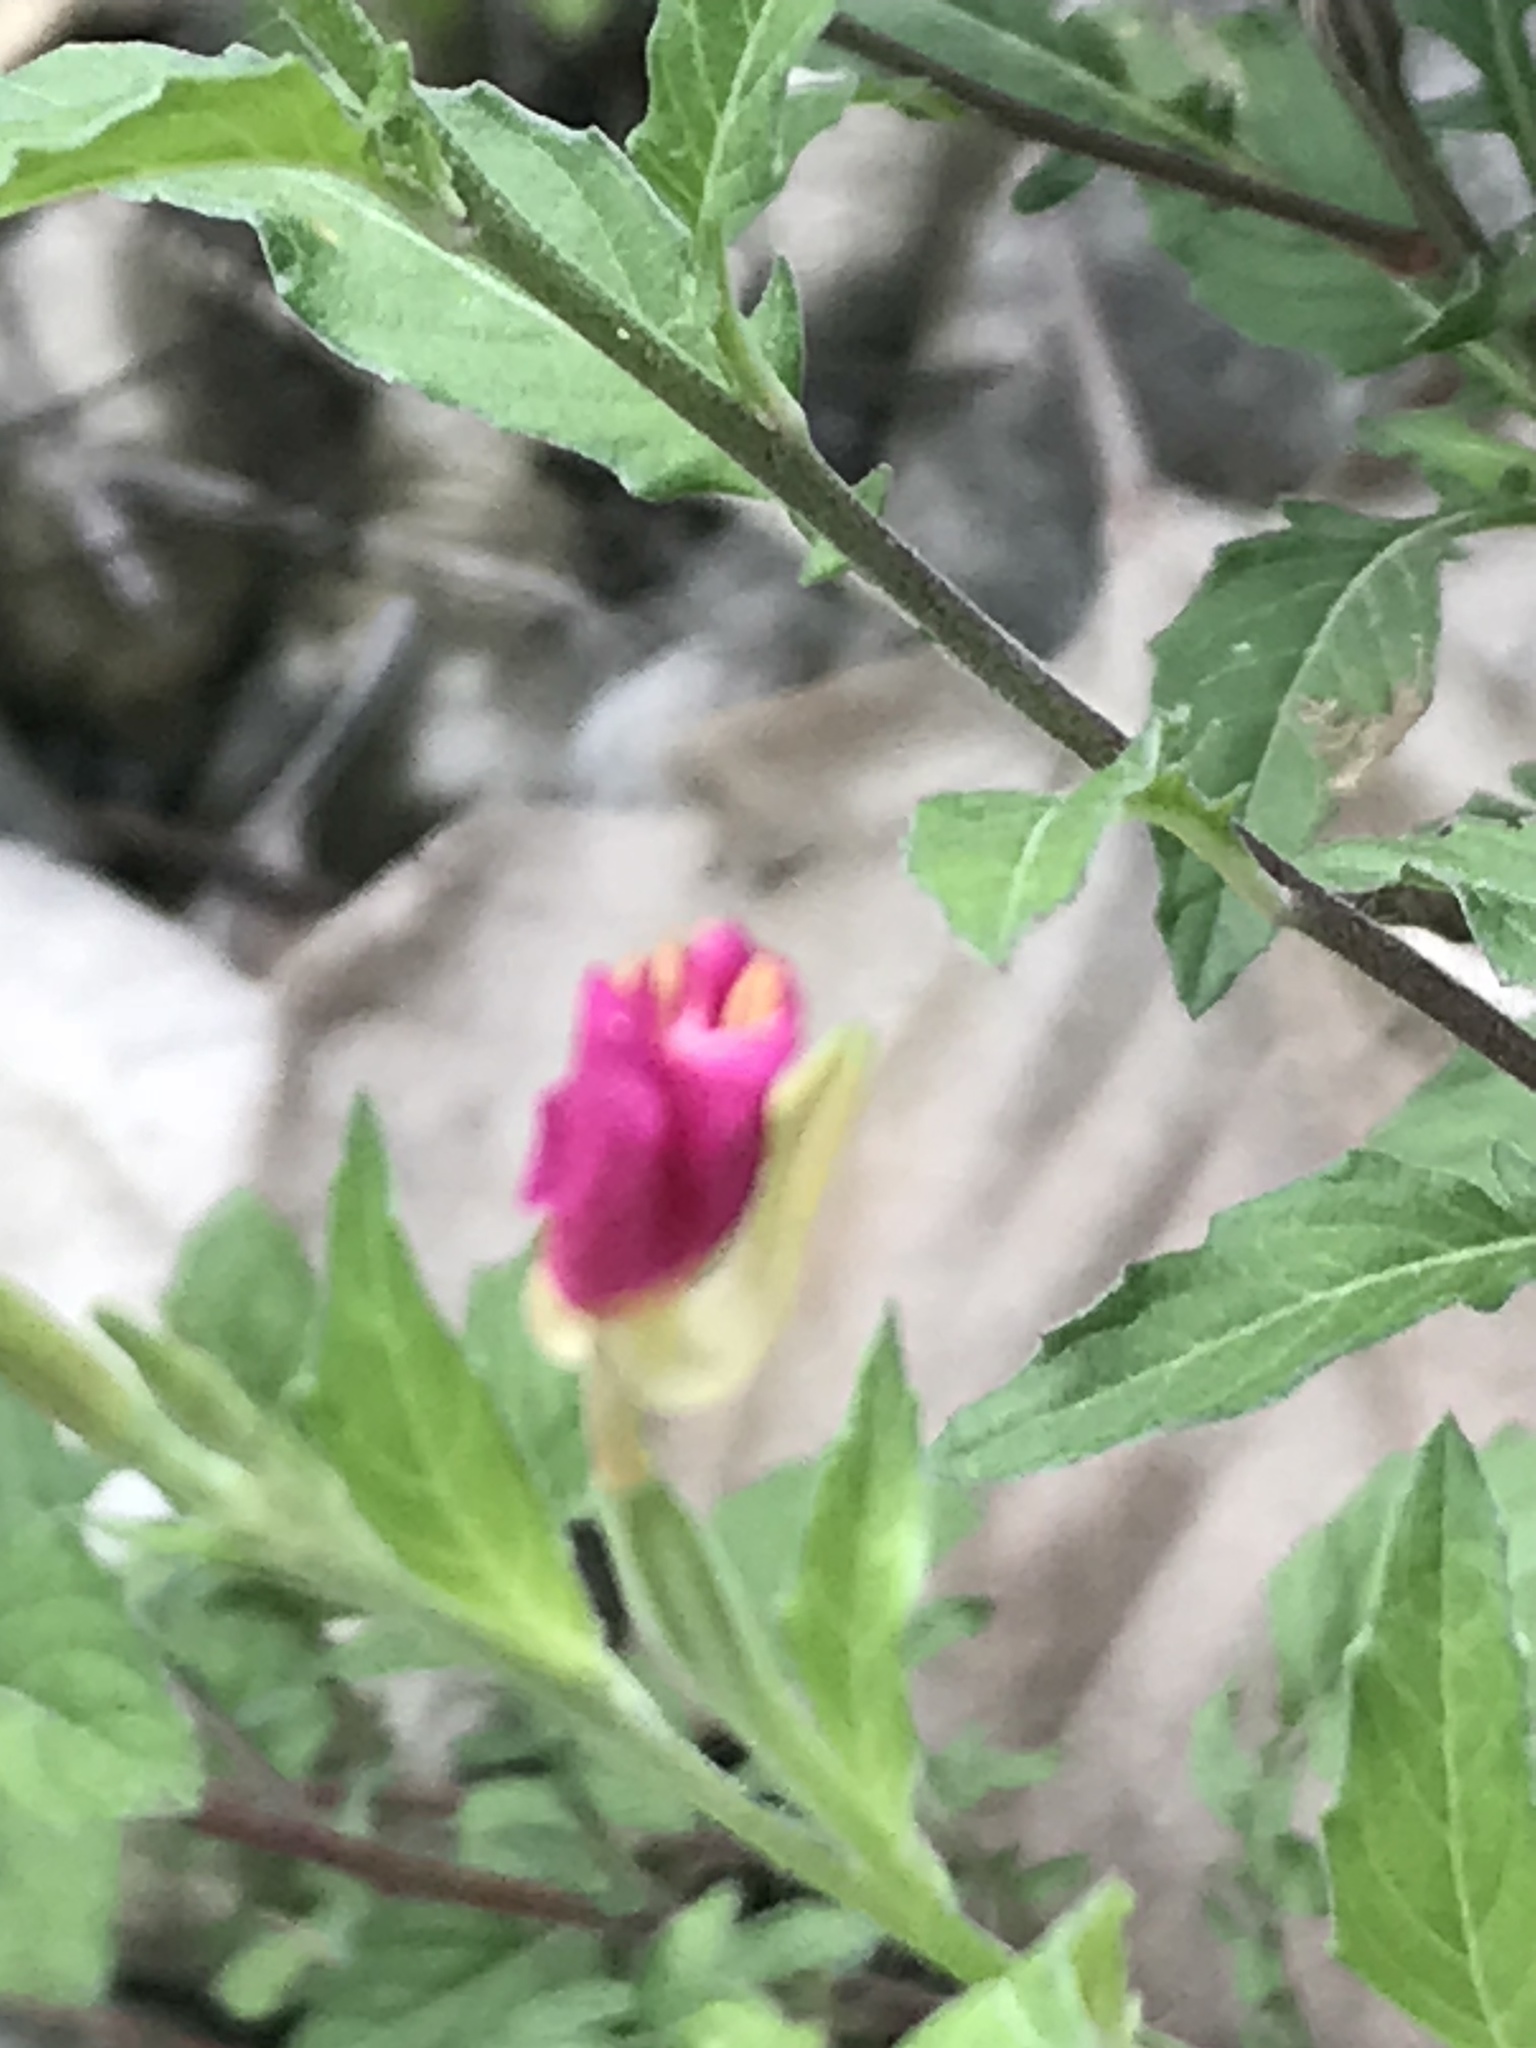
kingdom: Plantae
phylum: Tracheophyta
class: Magnoliopsida
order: Myrtales
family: Onagraceae
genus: Oenothera
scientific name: Oenothera rosea
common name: Rosy evening-primrose
